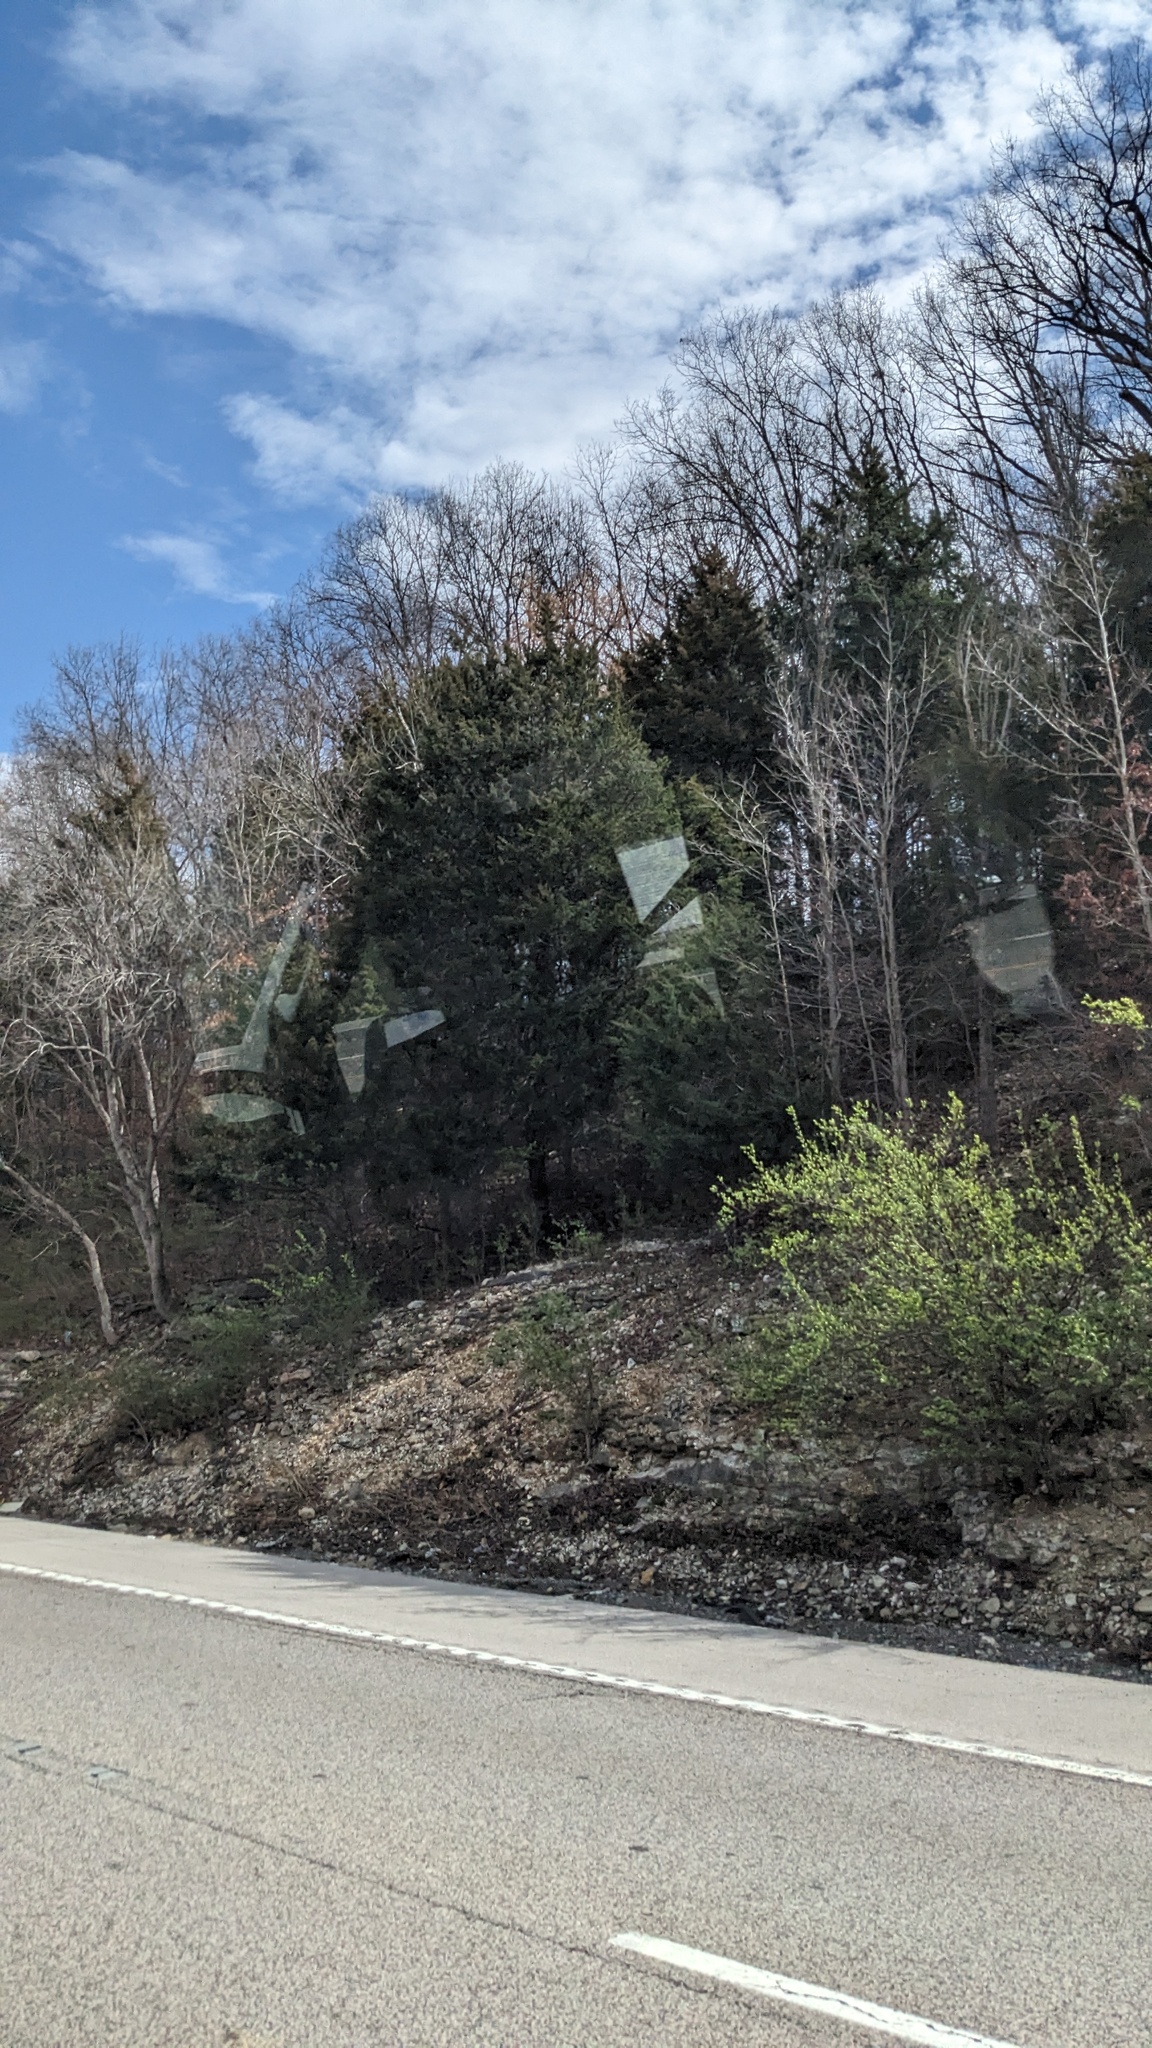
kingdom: Plantae
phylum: Tracheophyta
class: Pinopsida
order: Pinales
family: Cupressaceae
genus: Juniperus
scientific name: Juniperus virginiana
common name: Red juniper
